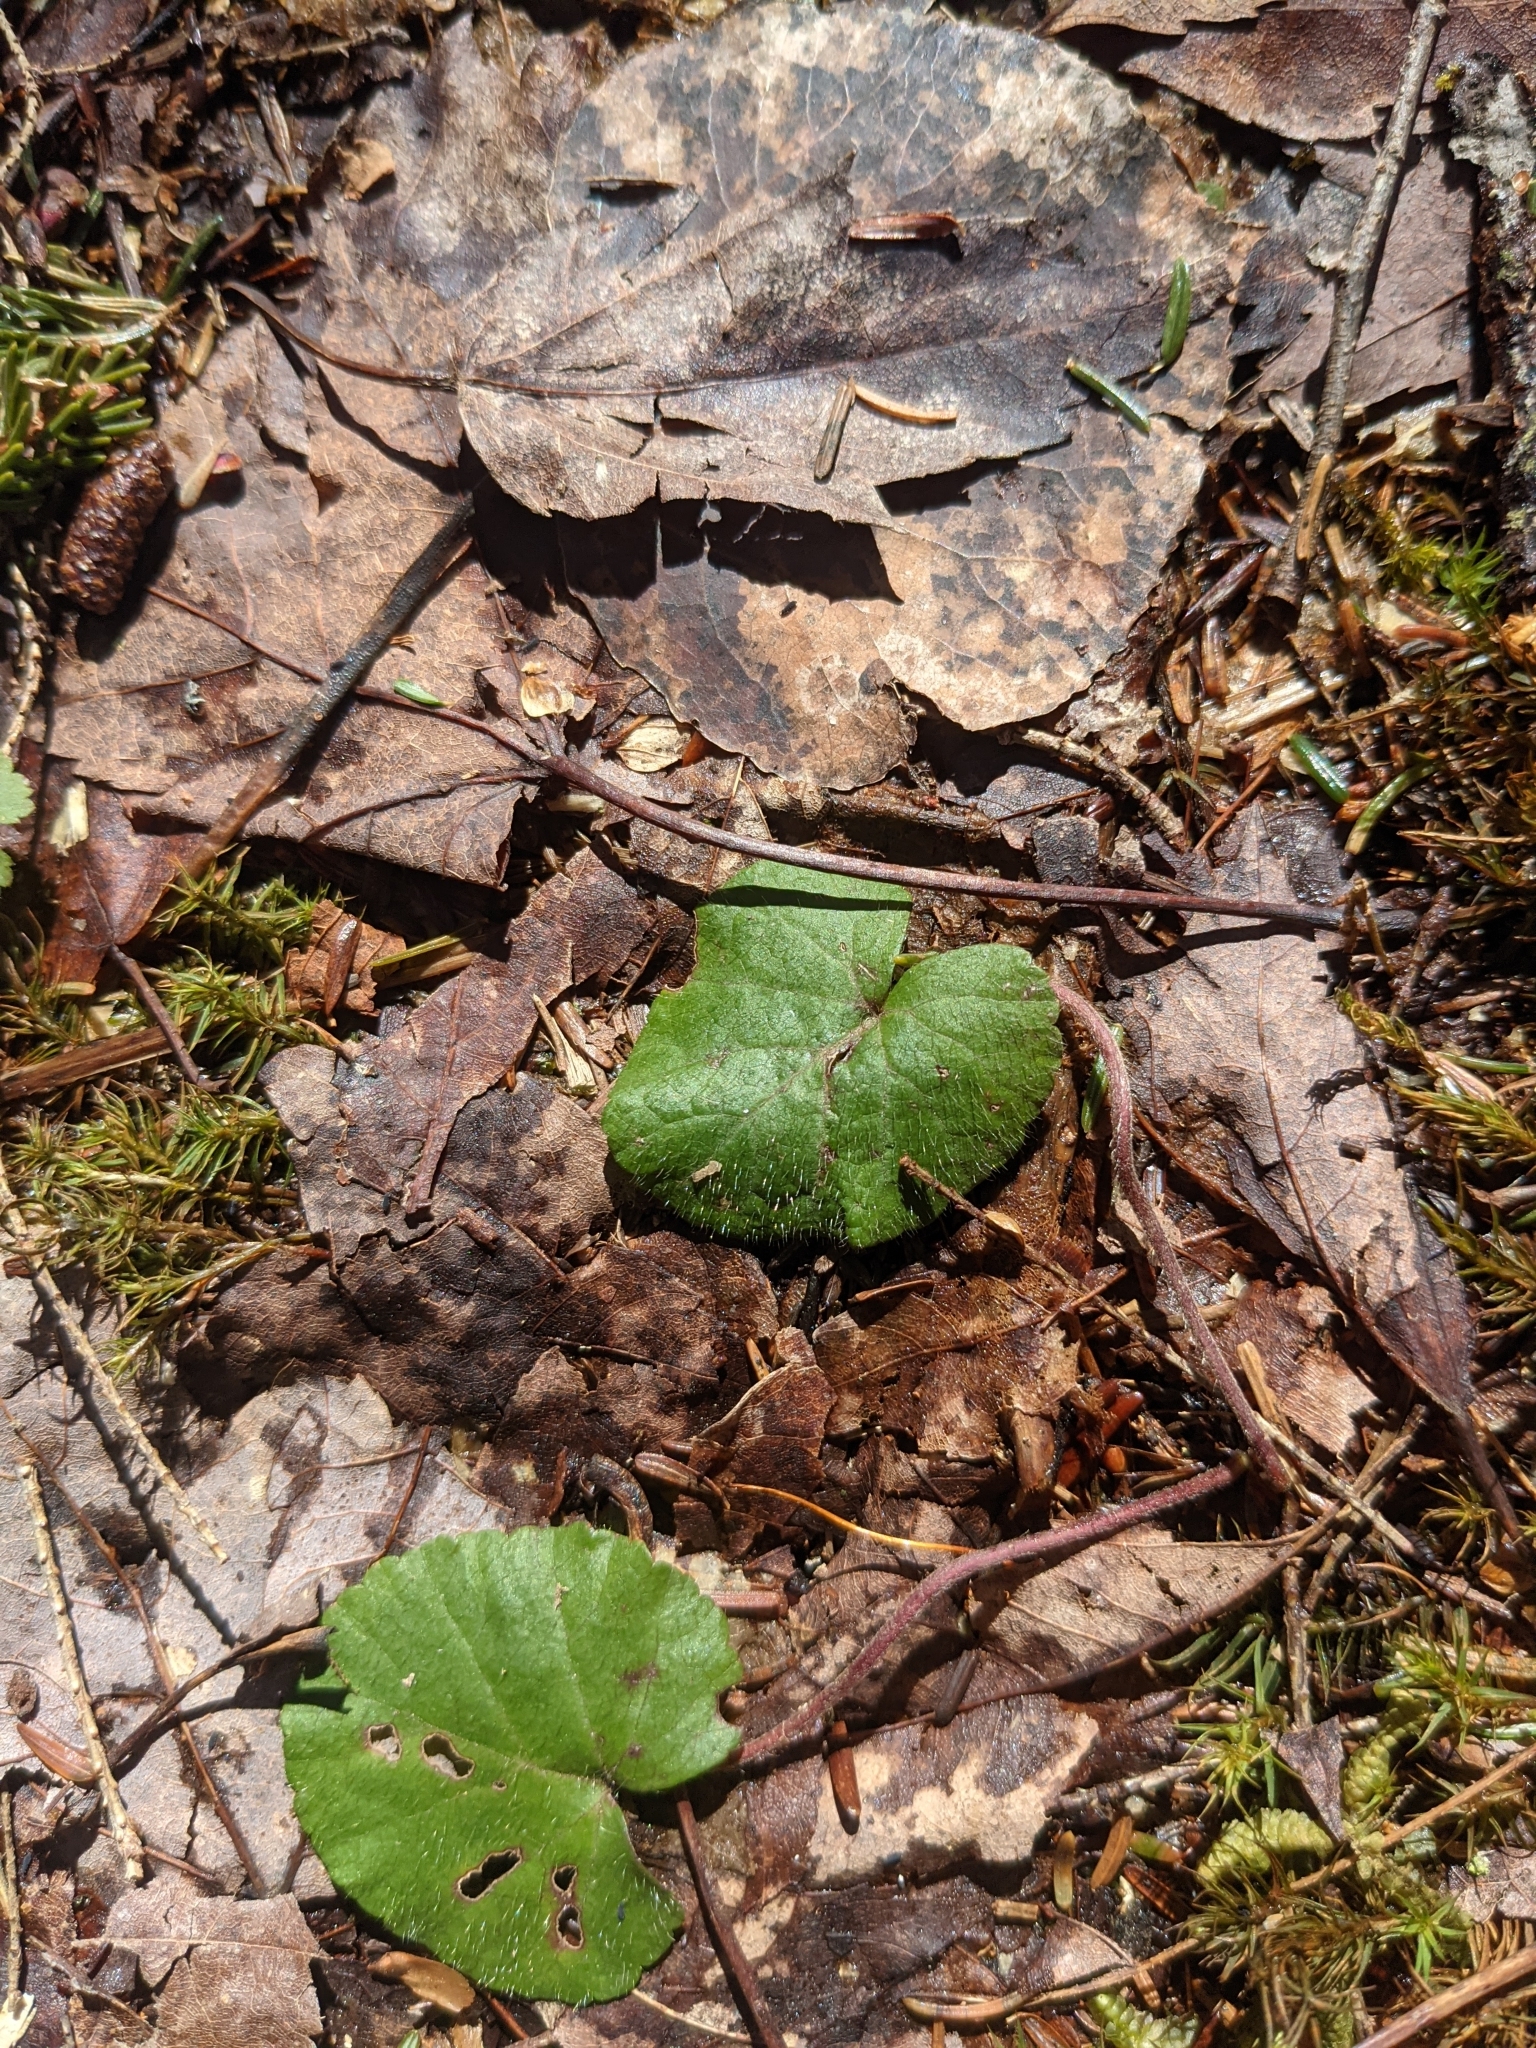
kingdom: Plantae
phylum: Tracheophyta
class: Magnoliopsida
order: Rosales
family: Rosaceae
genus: Dalibarda
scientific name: Dalibarda repens
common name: Dewdrop
